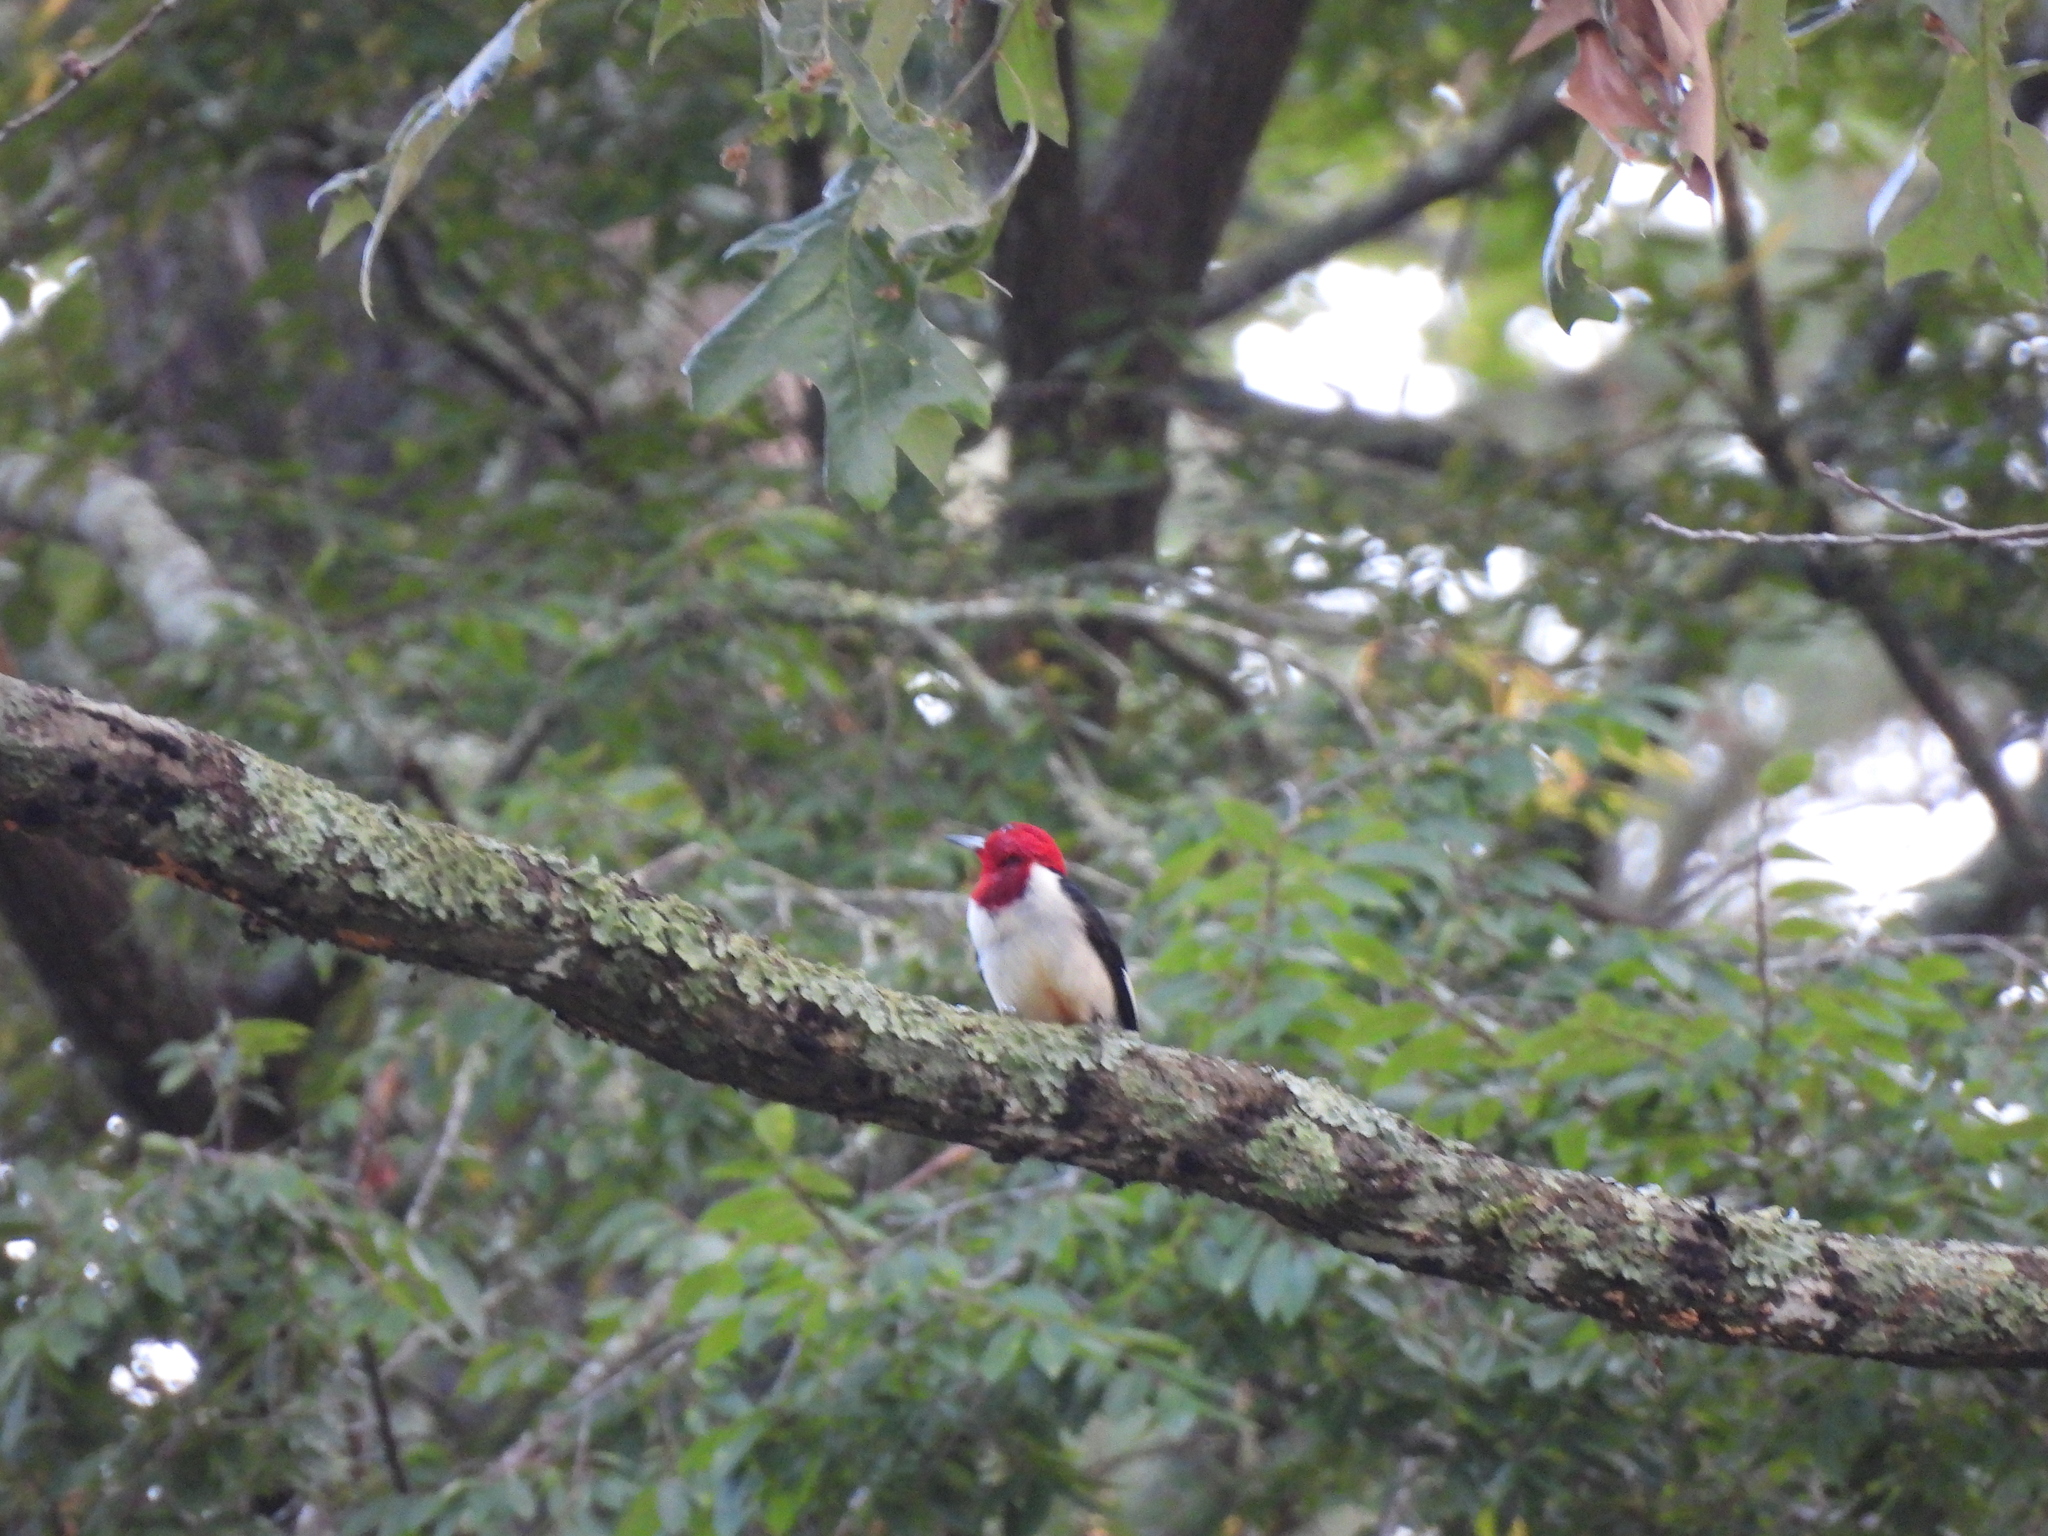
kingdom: Animalia
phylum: Chordata
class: Aves
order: Piciformes
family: Picidae
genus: Melanerpes
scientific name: Melanerpes erythrocephalus
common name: Red-headed woodpecker
